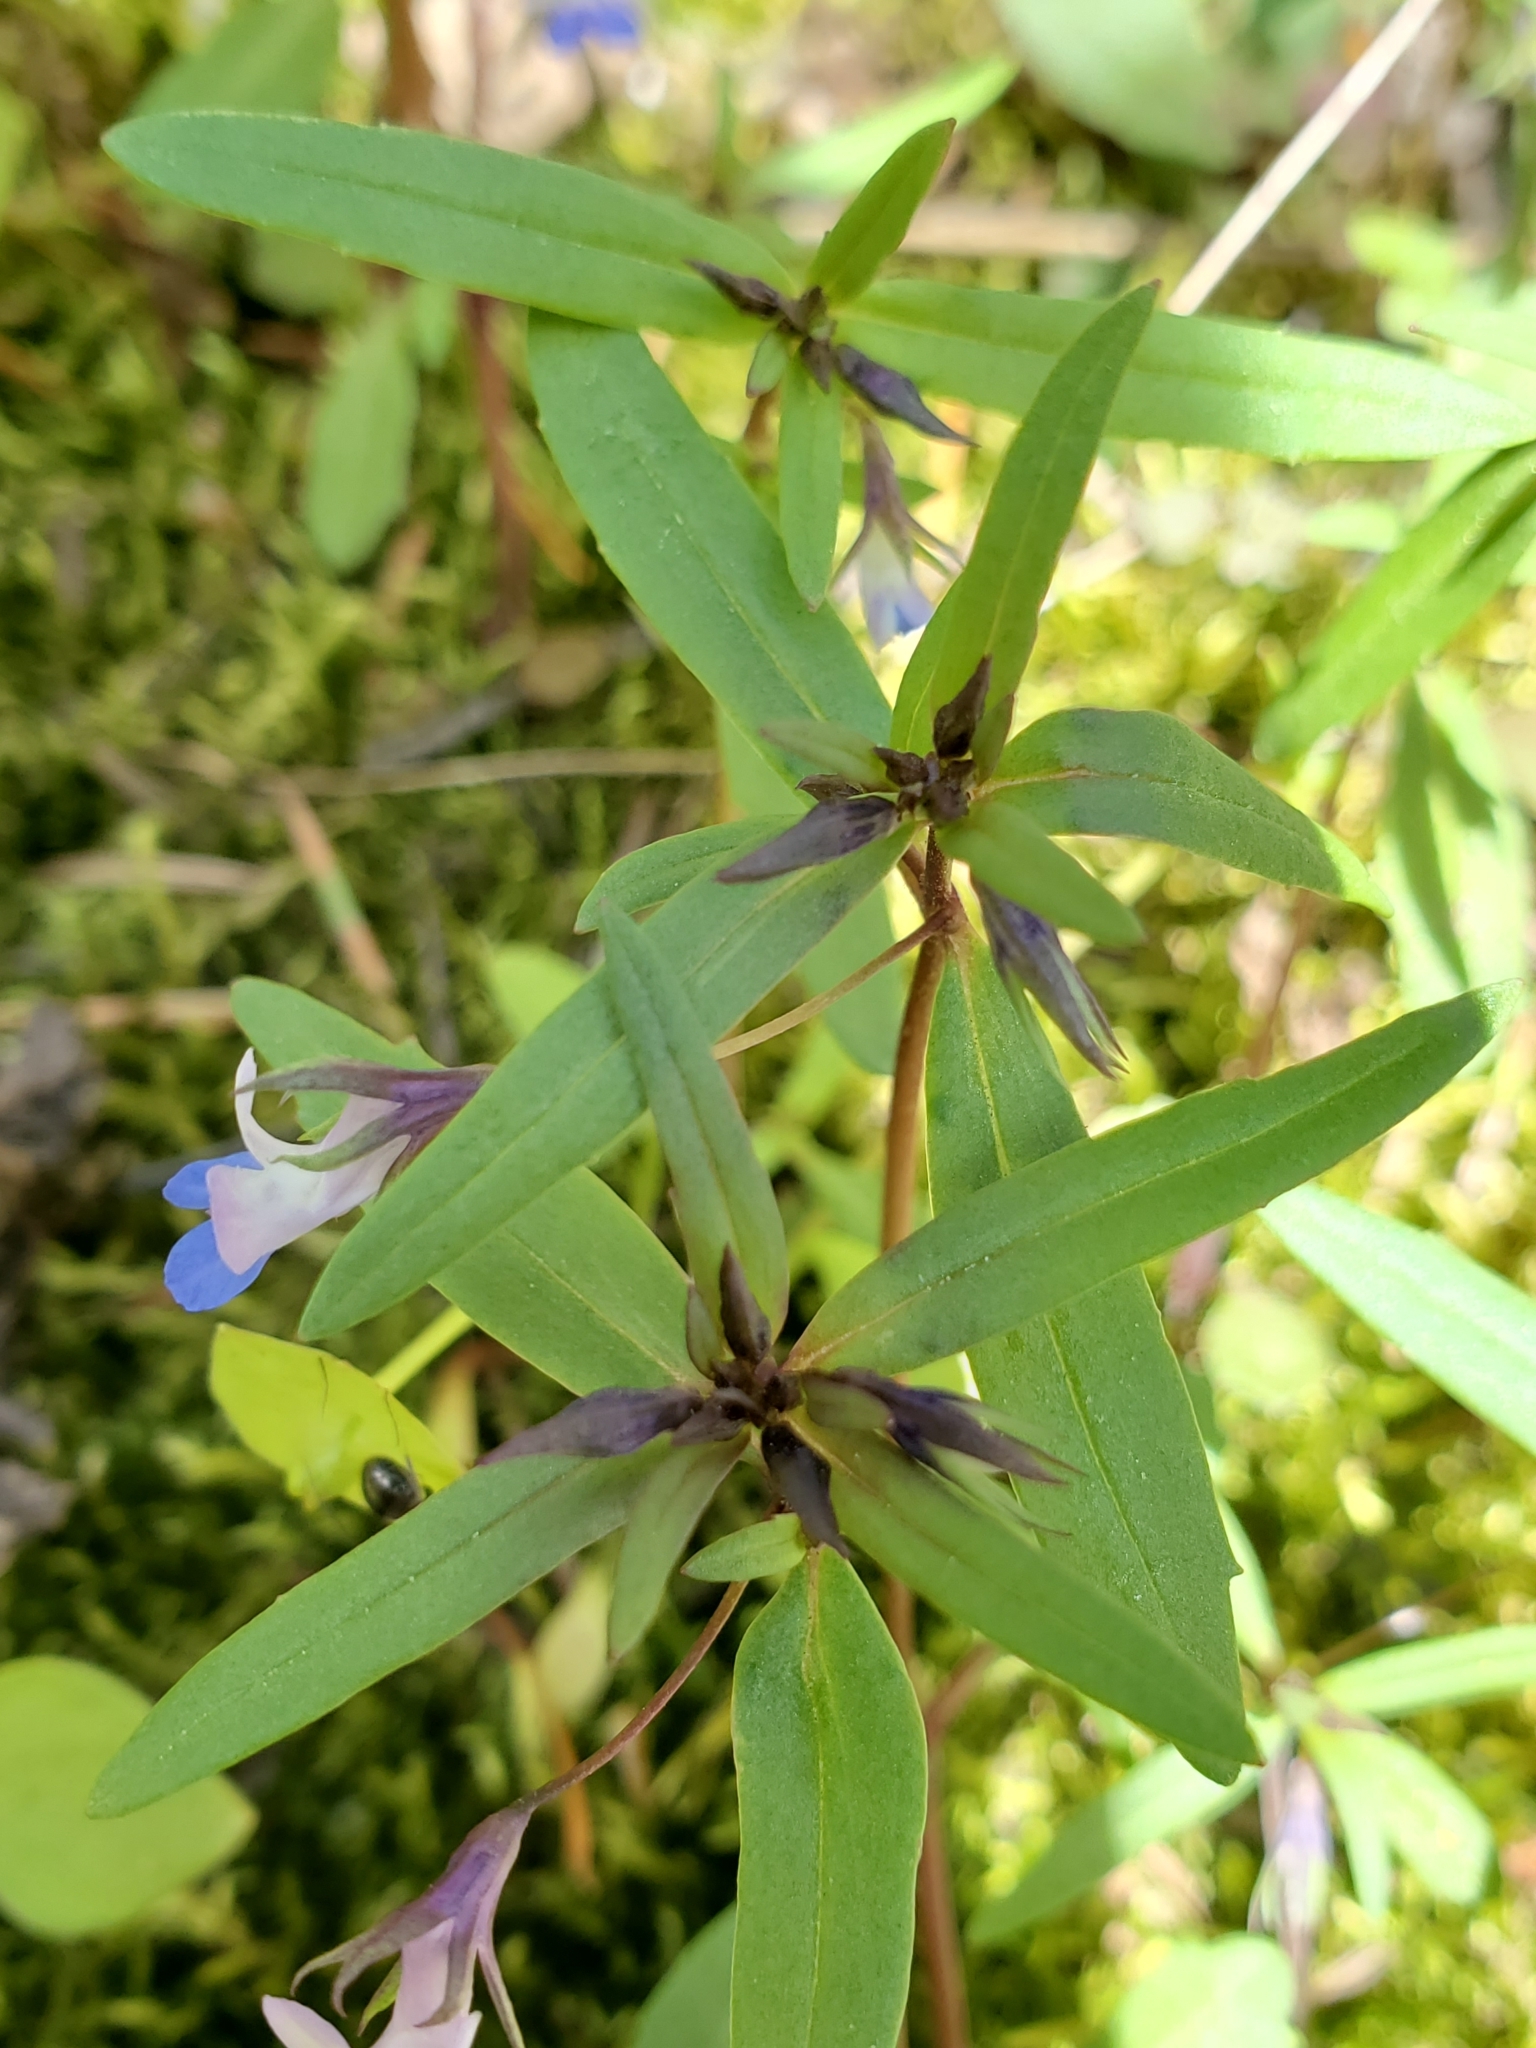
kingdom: Plantae
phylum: Tracheophyta
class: Magnoliopsida
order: Lamiales
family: Plantaginaceae
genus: Collinsia
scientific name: Collinsia parviflora
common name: Blue-lips
